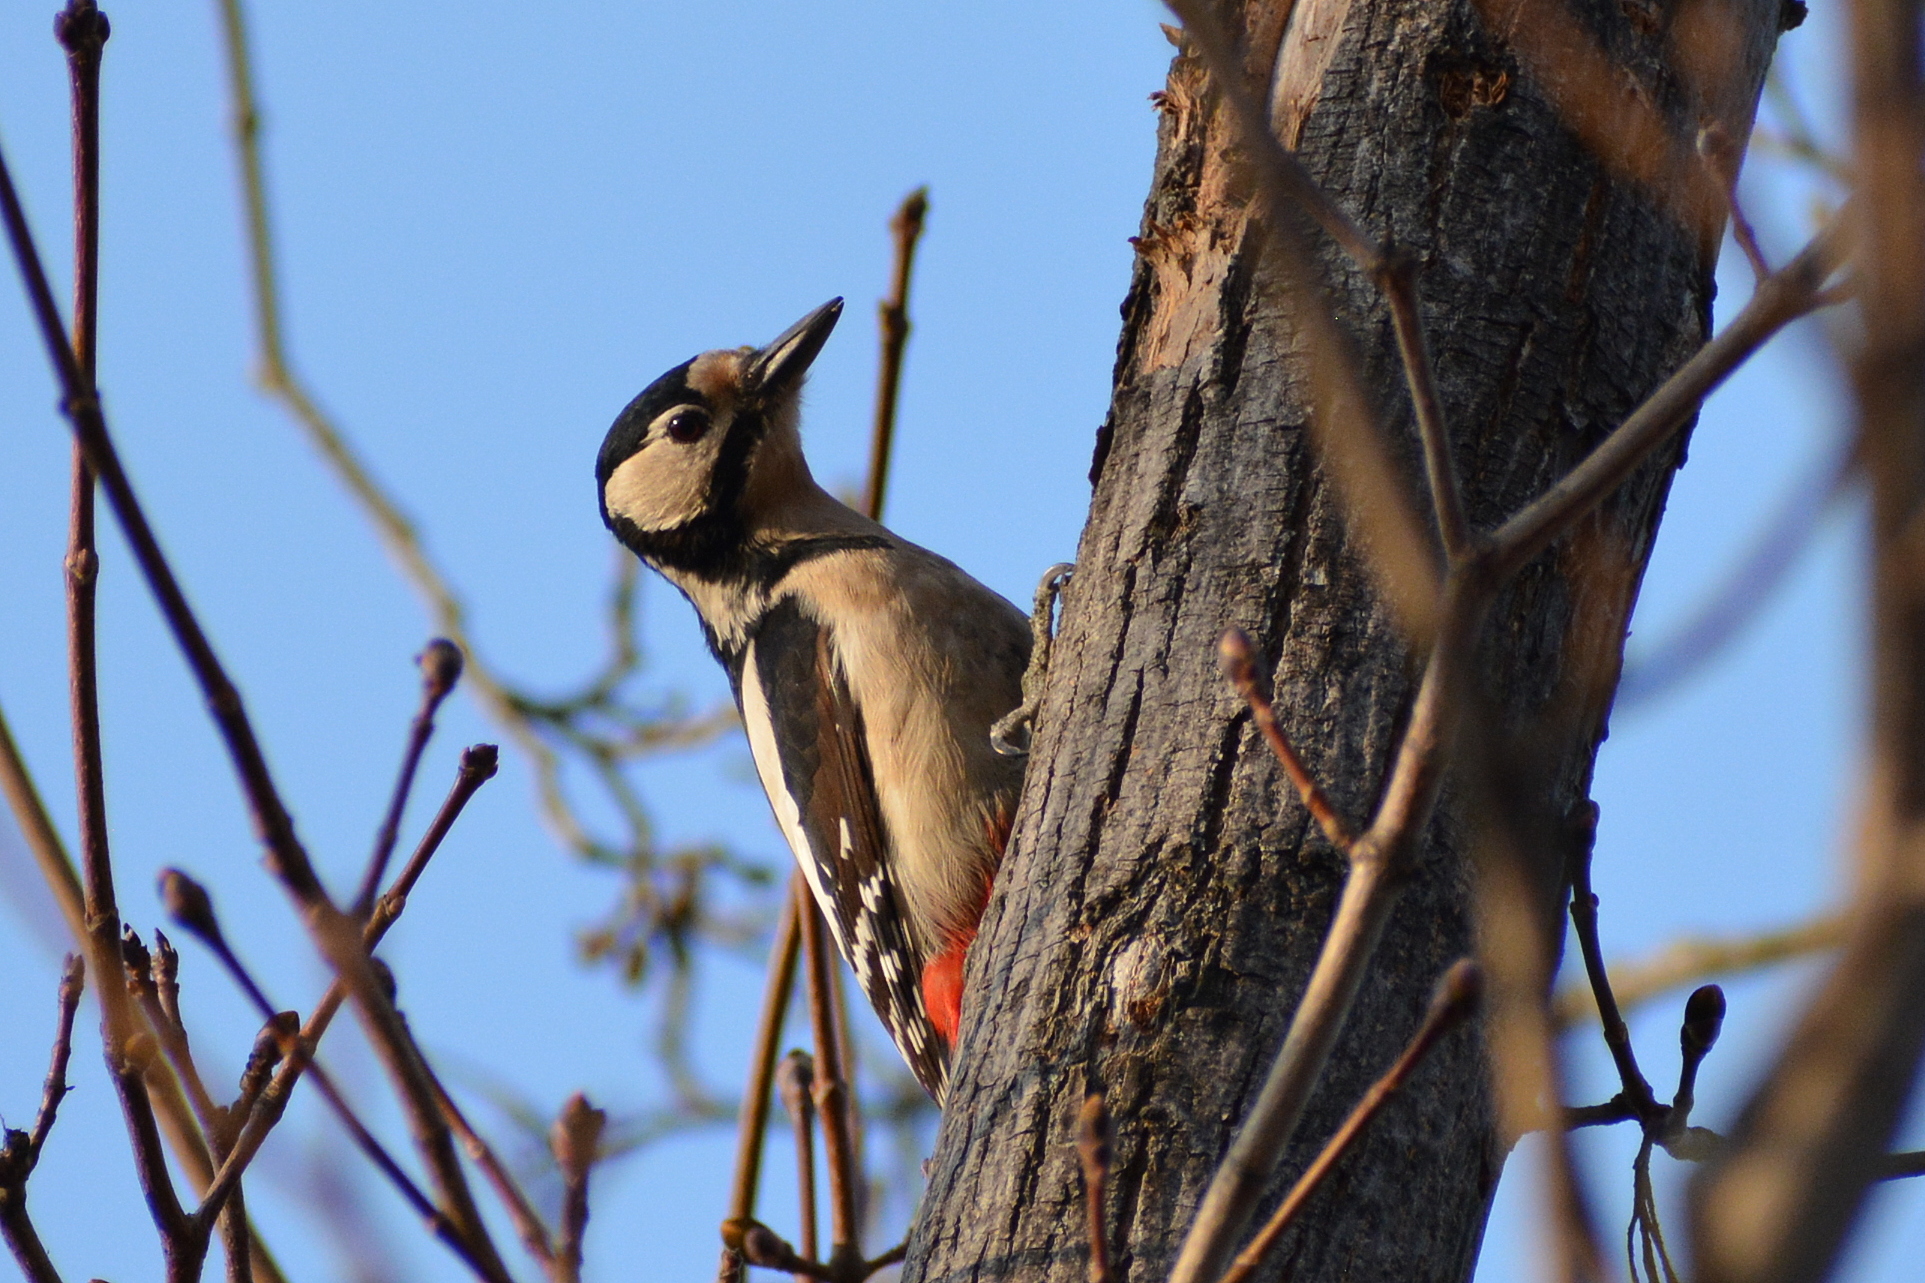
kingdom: Animalia
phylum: Chordata
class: Aves
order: Piciformes
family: Picidae
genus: Dendrocopos
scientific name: Dendrocopos major
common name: Great spotted woodpecker
